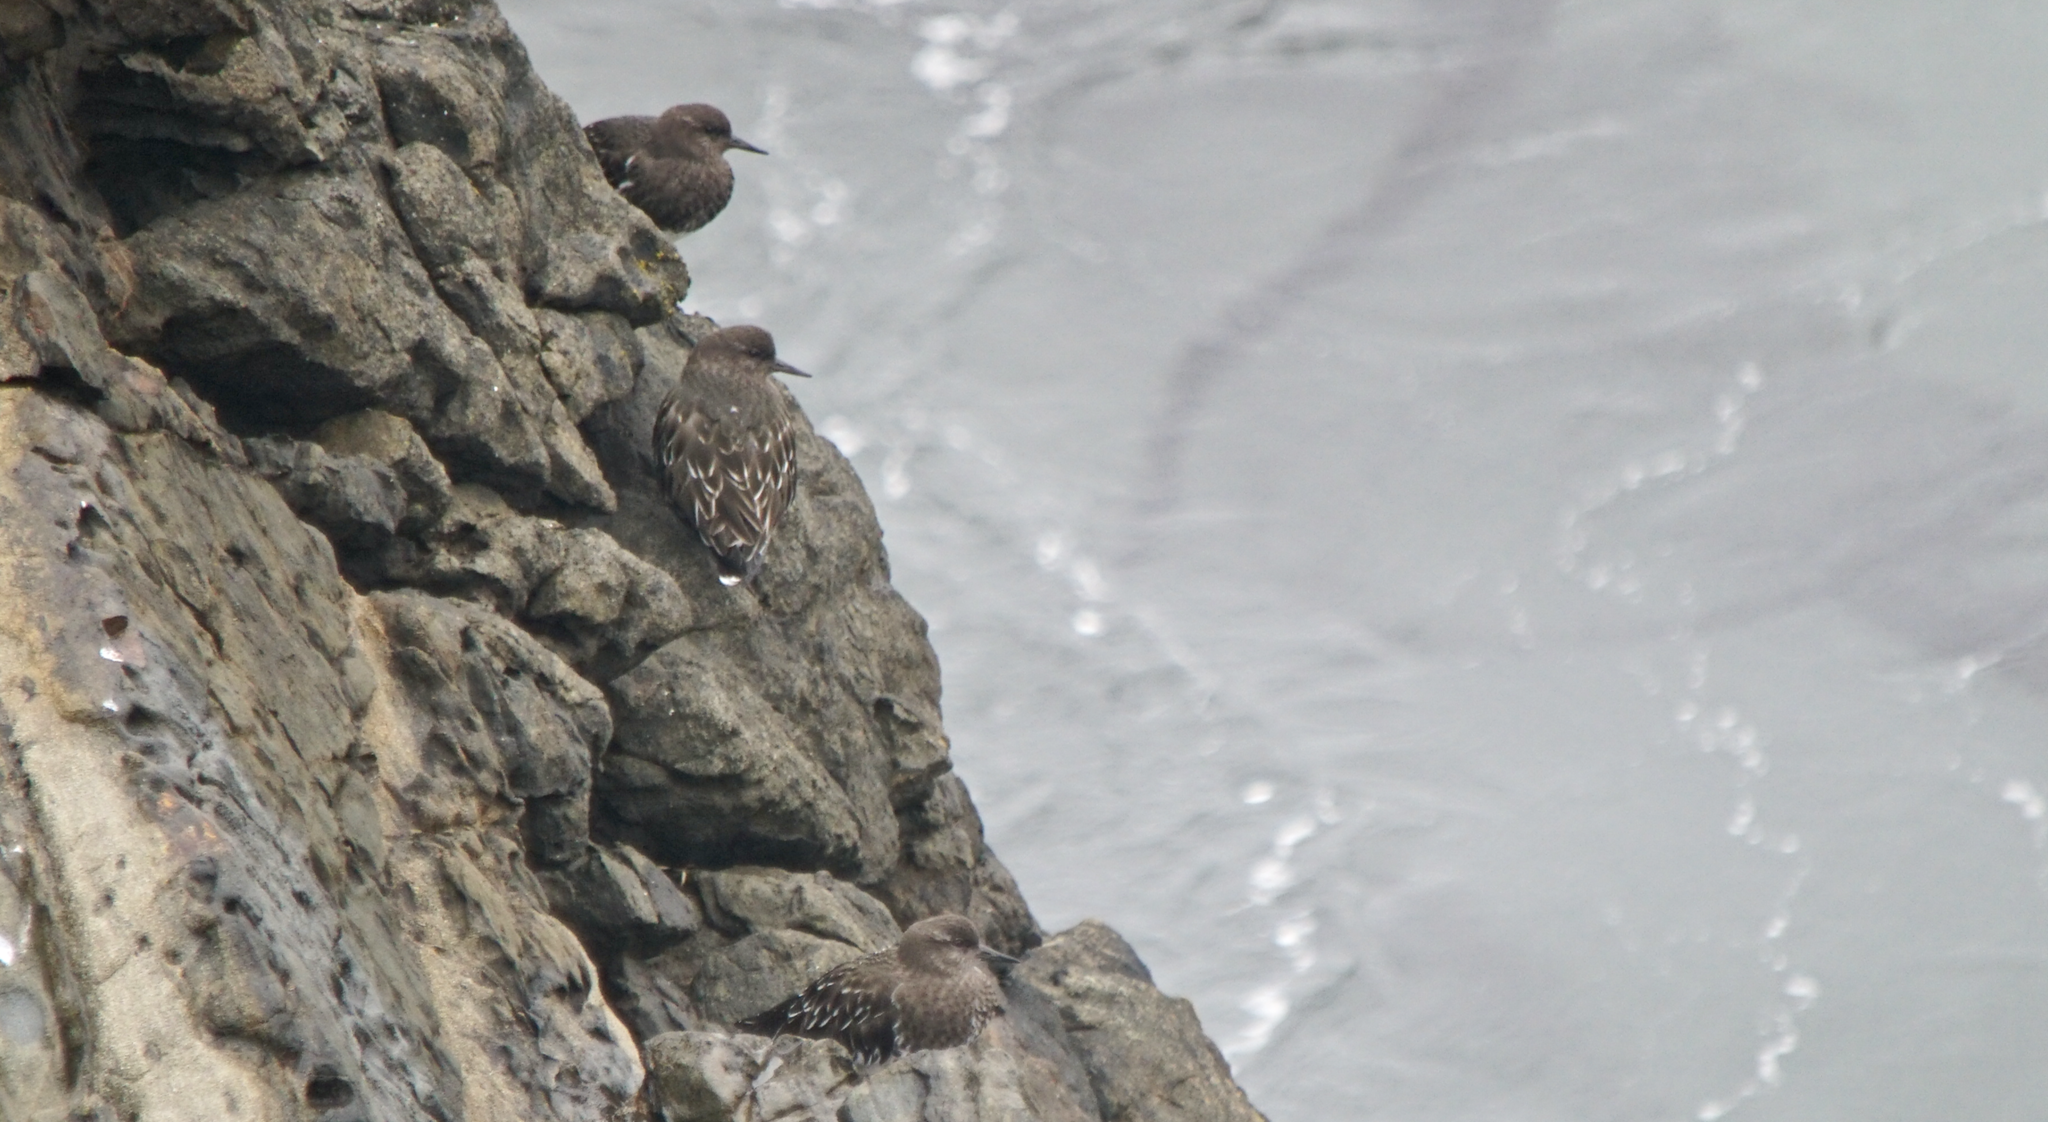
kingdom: Animalia
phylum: Chordata
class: Aves
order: Charadriiformes
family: Scolopacidae
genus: Arenaria
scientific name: Arenaria melanocephala
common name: Black turnstone
